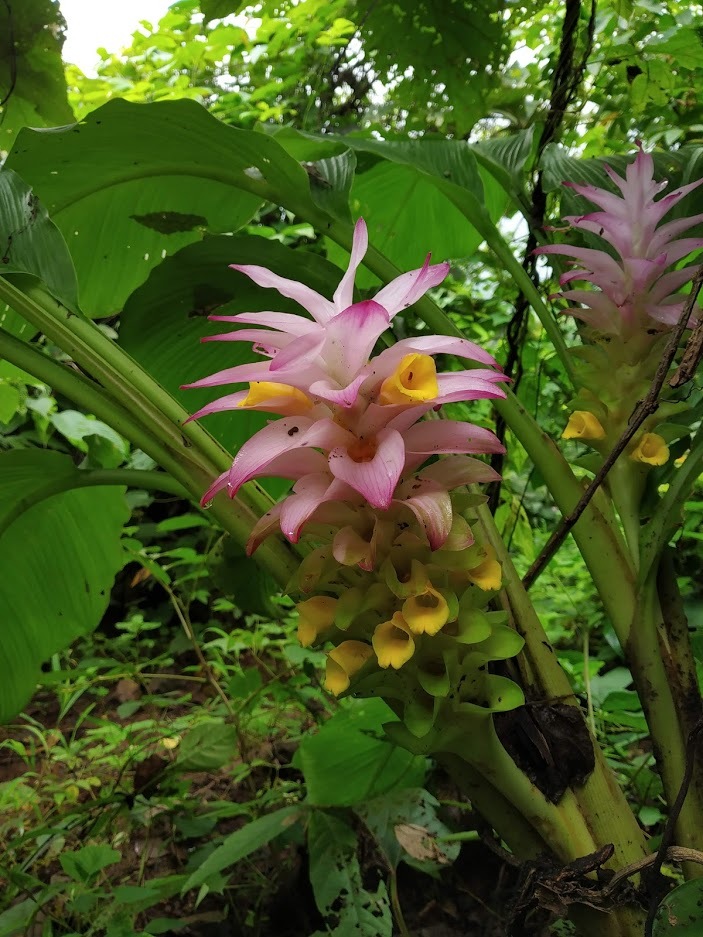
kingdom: Plantae
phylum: Tracheophyta
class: Liliopsida
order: Zingiberales
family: Zingiberaceae
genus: Curcuma
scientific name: Curcuma pseudomontana
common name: Hill turmeric
